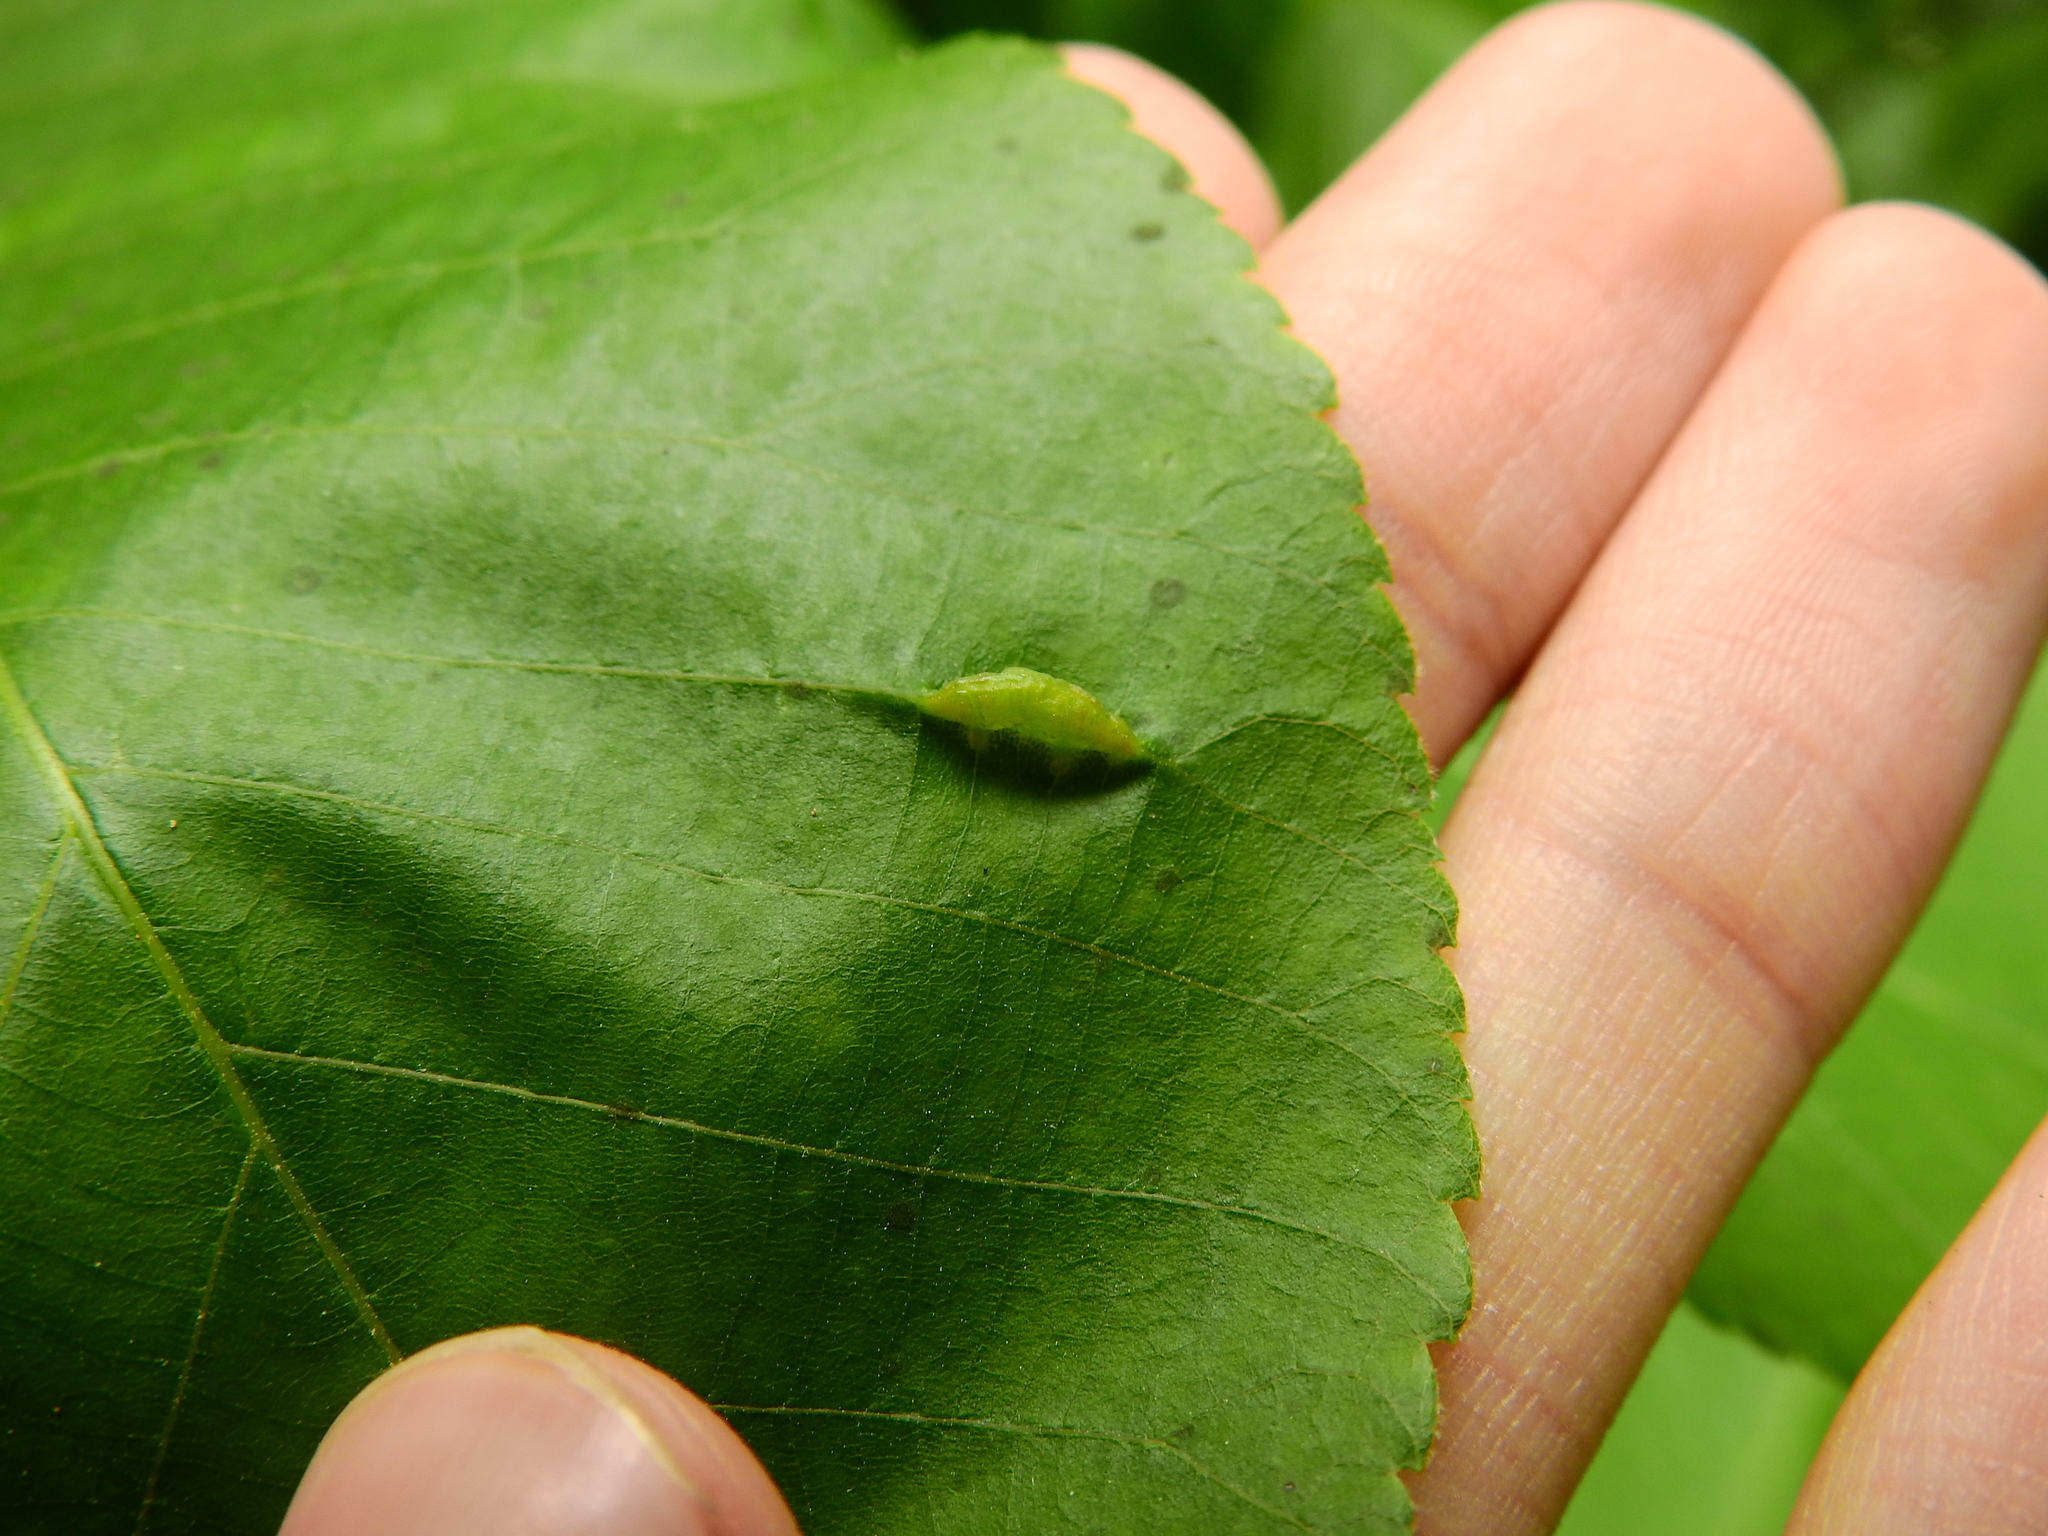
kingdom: Animalia
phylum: Arthropoda
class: Insecta
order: Hemiptera
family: Phylloxeridae
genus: Phylloxera
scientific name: Phylloxera caryaevenae
